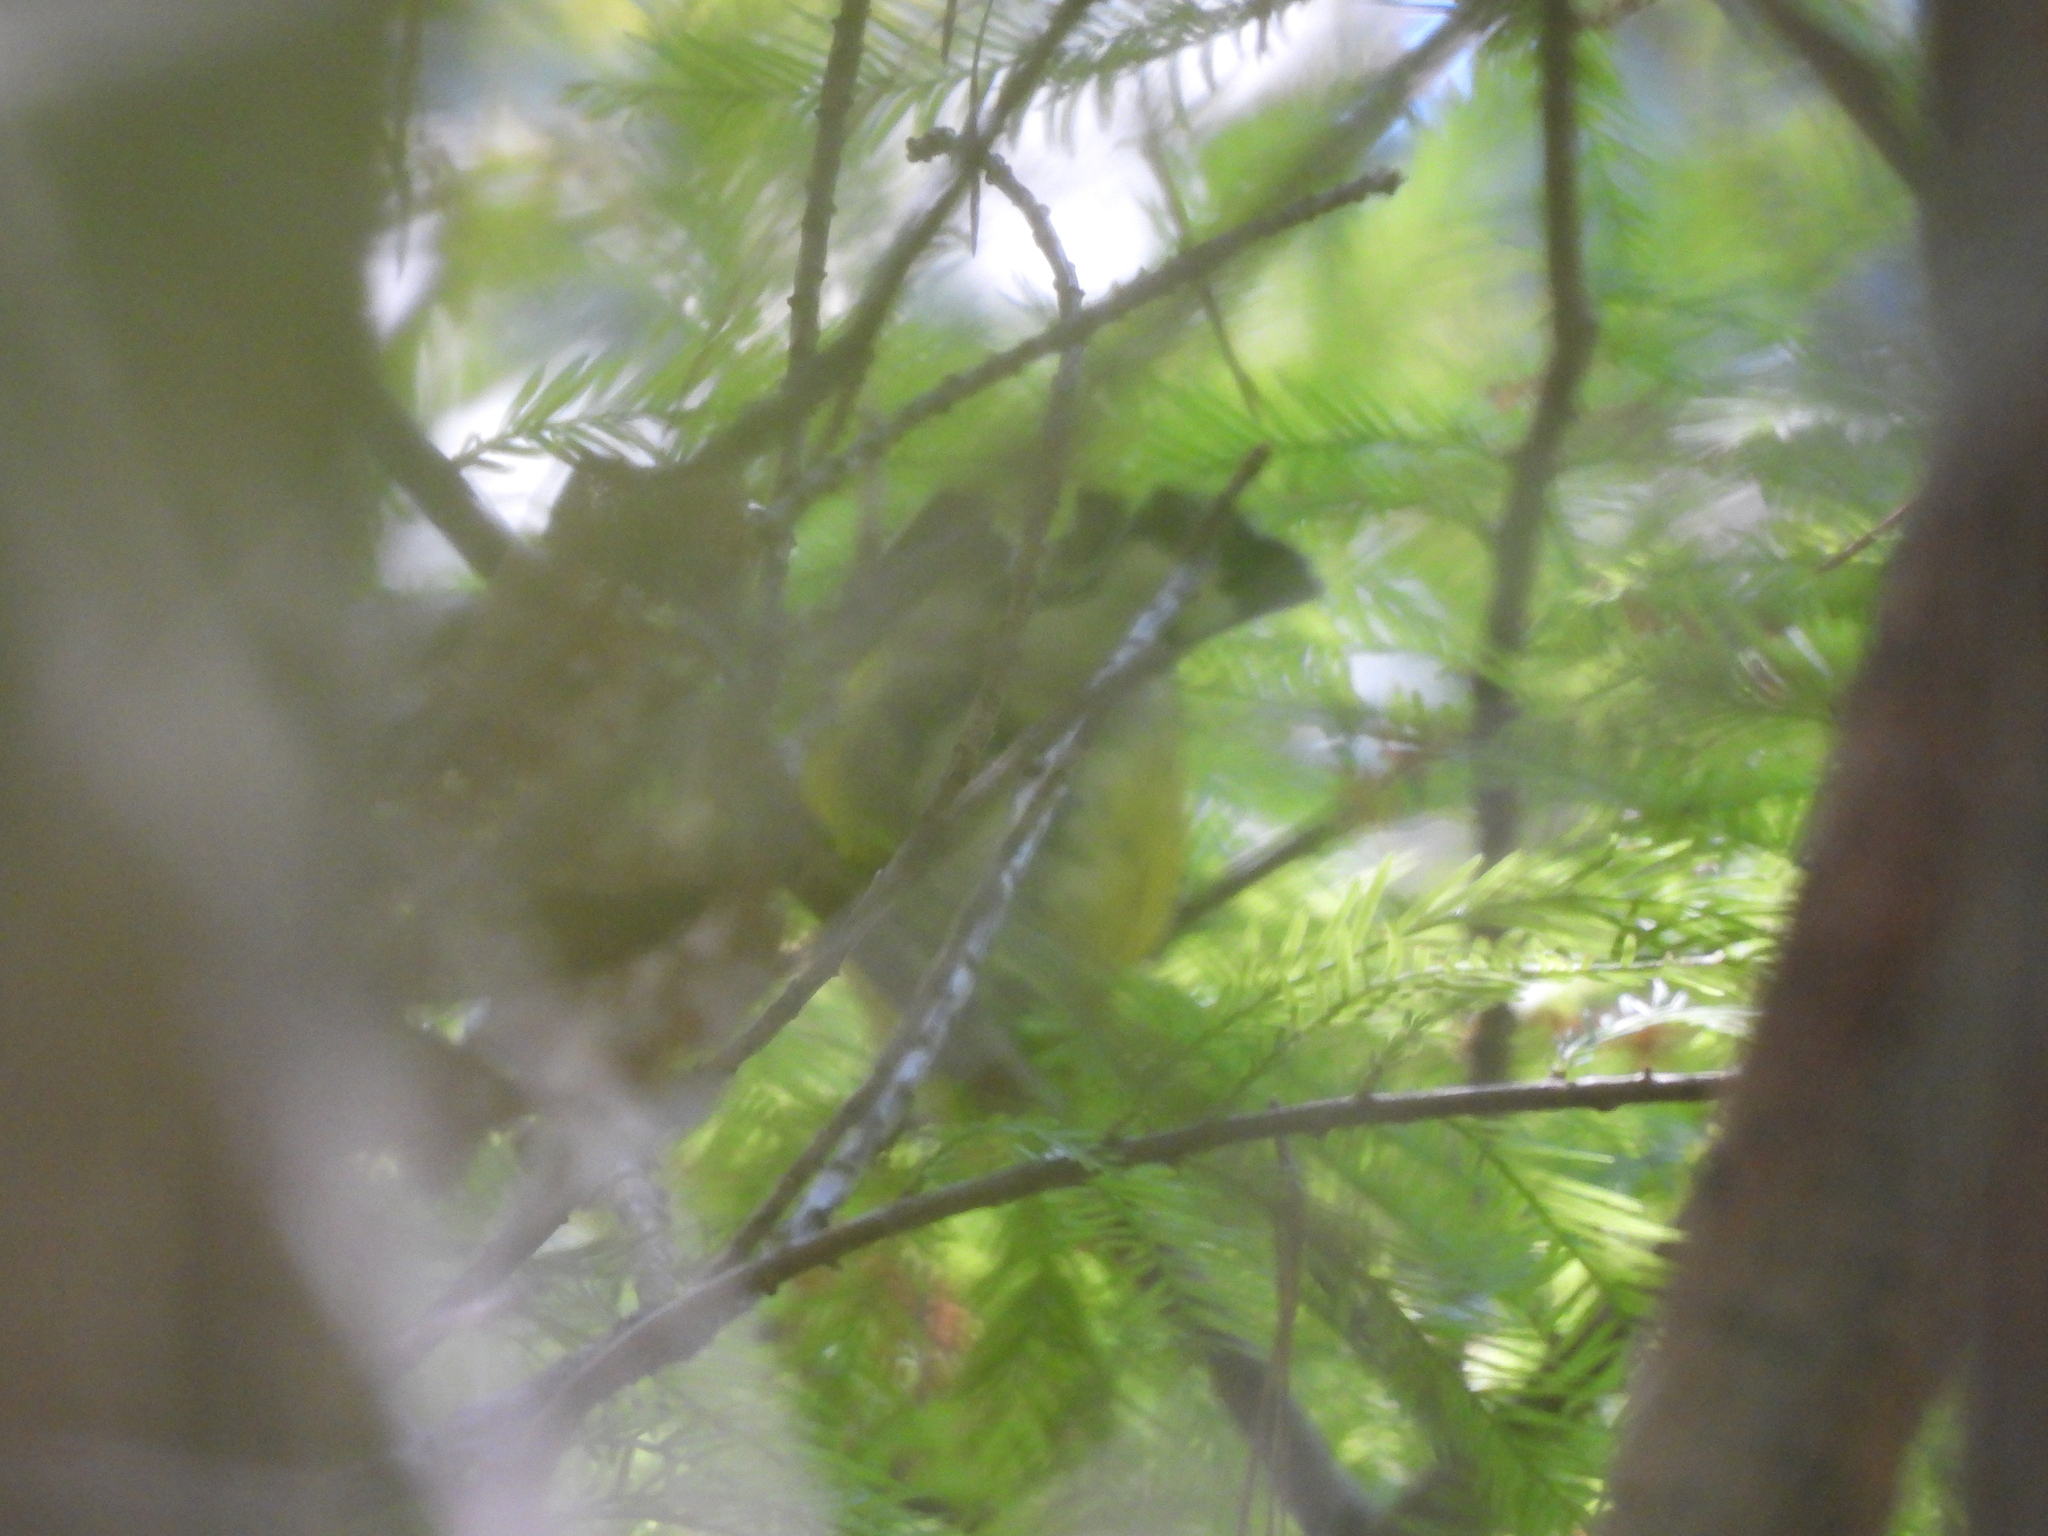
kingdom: Animalia
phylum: Chordata
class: Aves
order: Passeriformes
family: Parulidae
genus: Setophaga
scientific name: Setophaga magnolia
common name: Magnolia warbler
